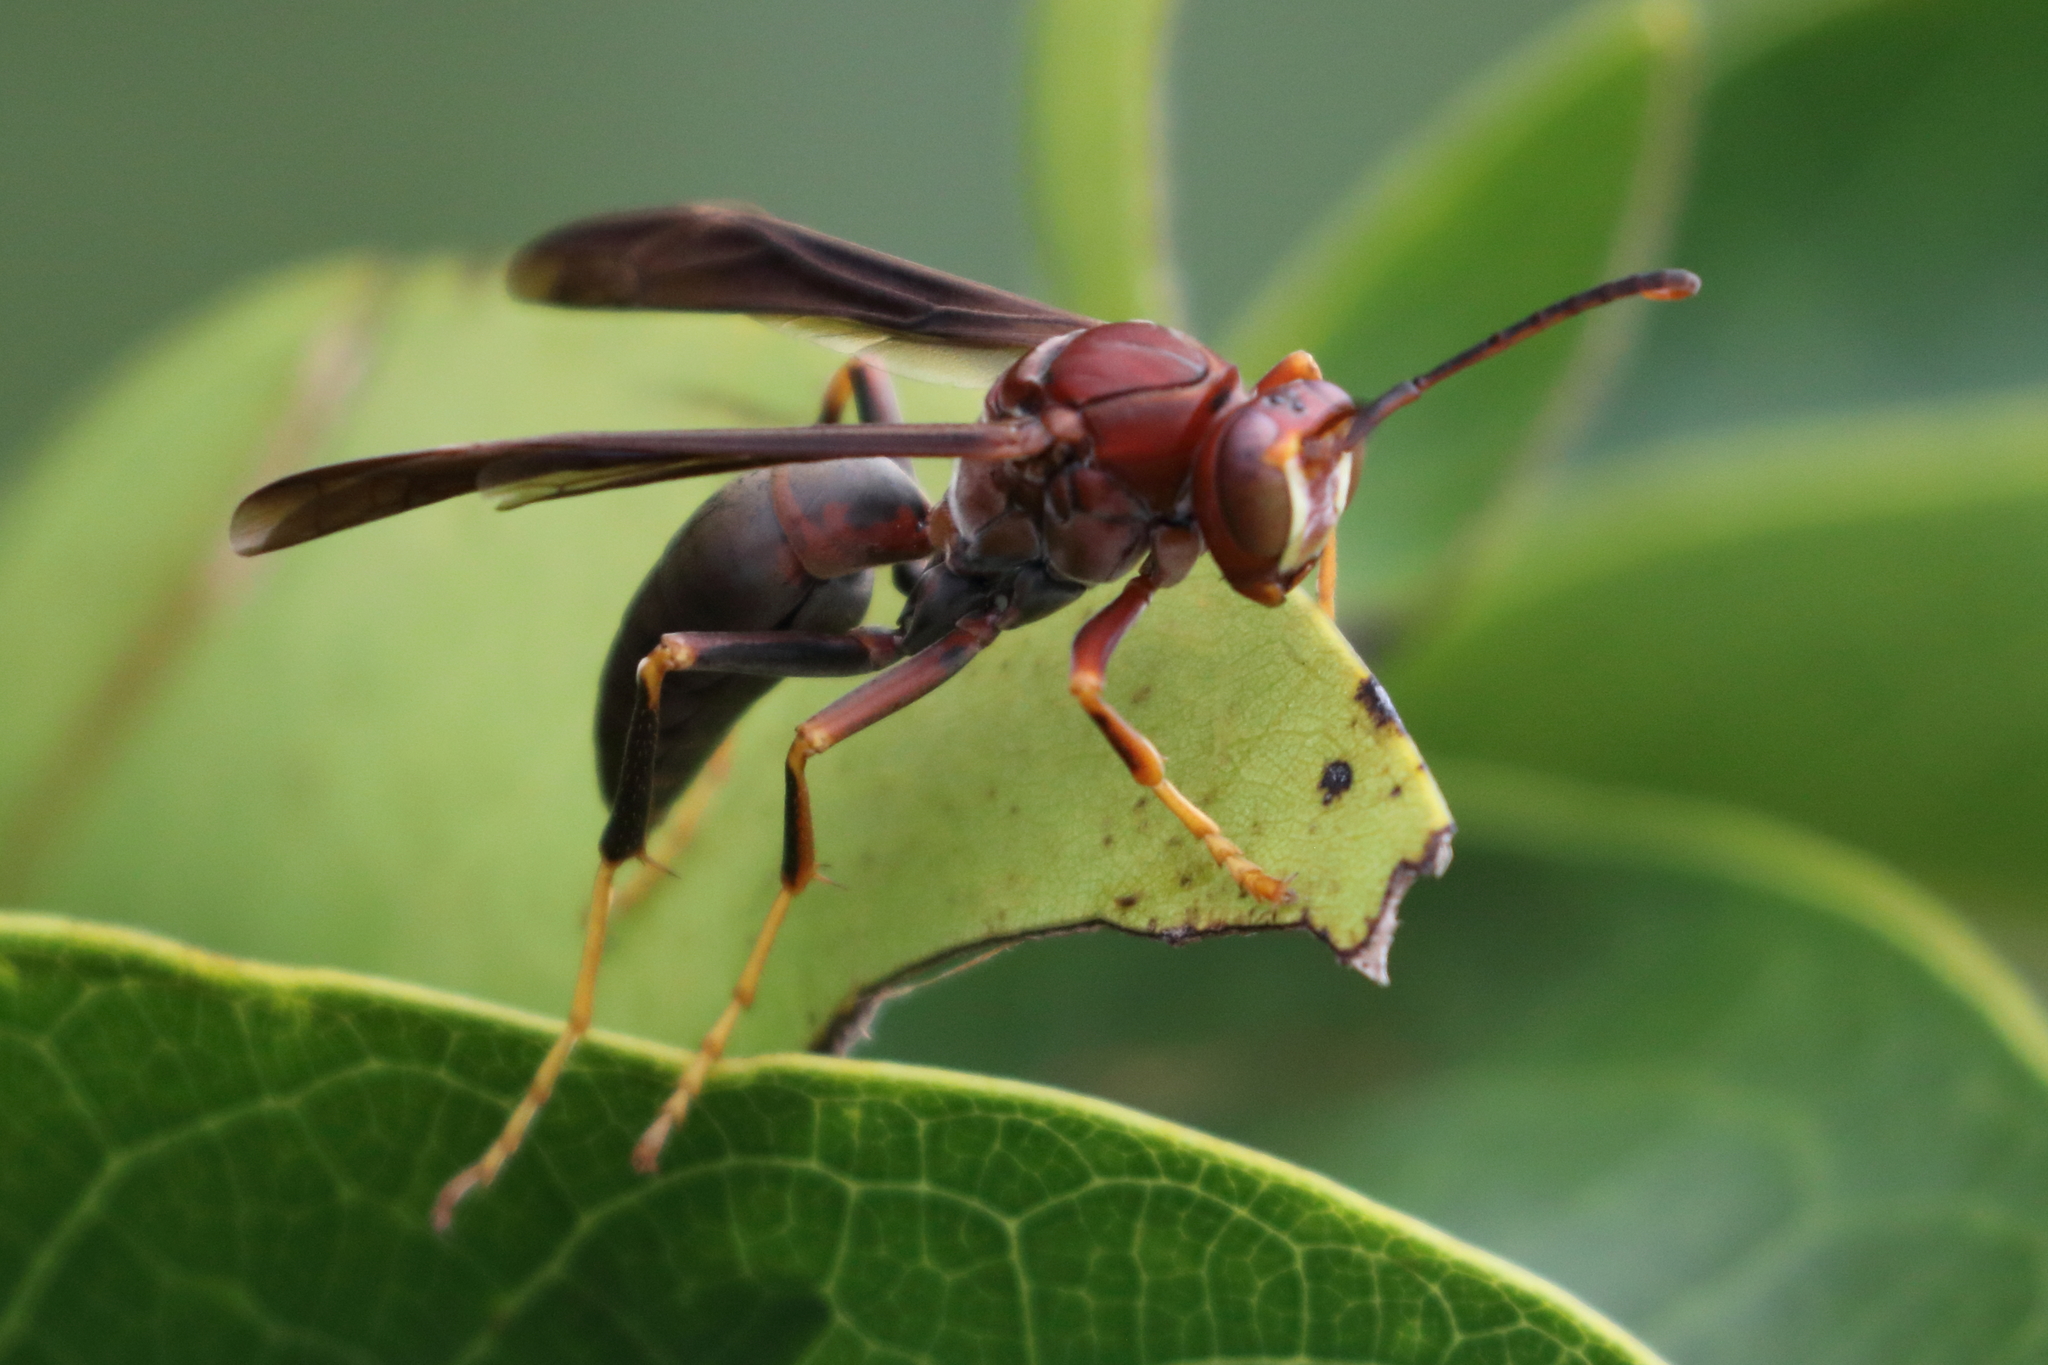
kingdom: Animalia
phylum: Arthropoda
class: Insecta
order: Hymenoptera
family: Eumenidae
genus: Polistes
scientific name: Polistes metricus
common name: Metric paper wasp
